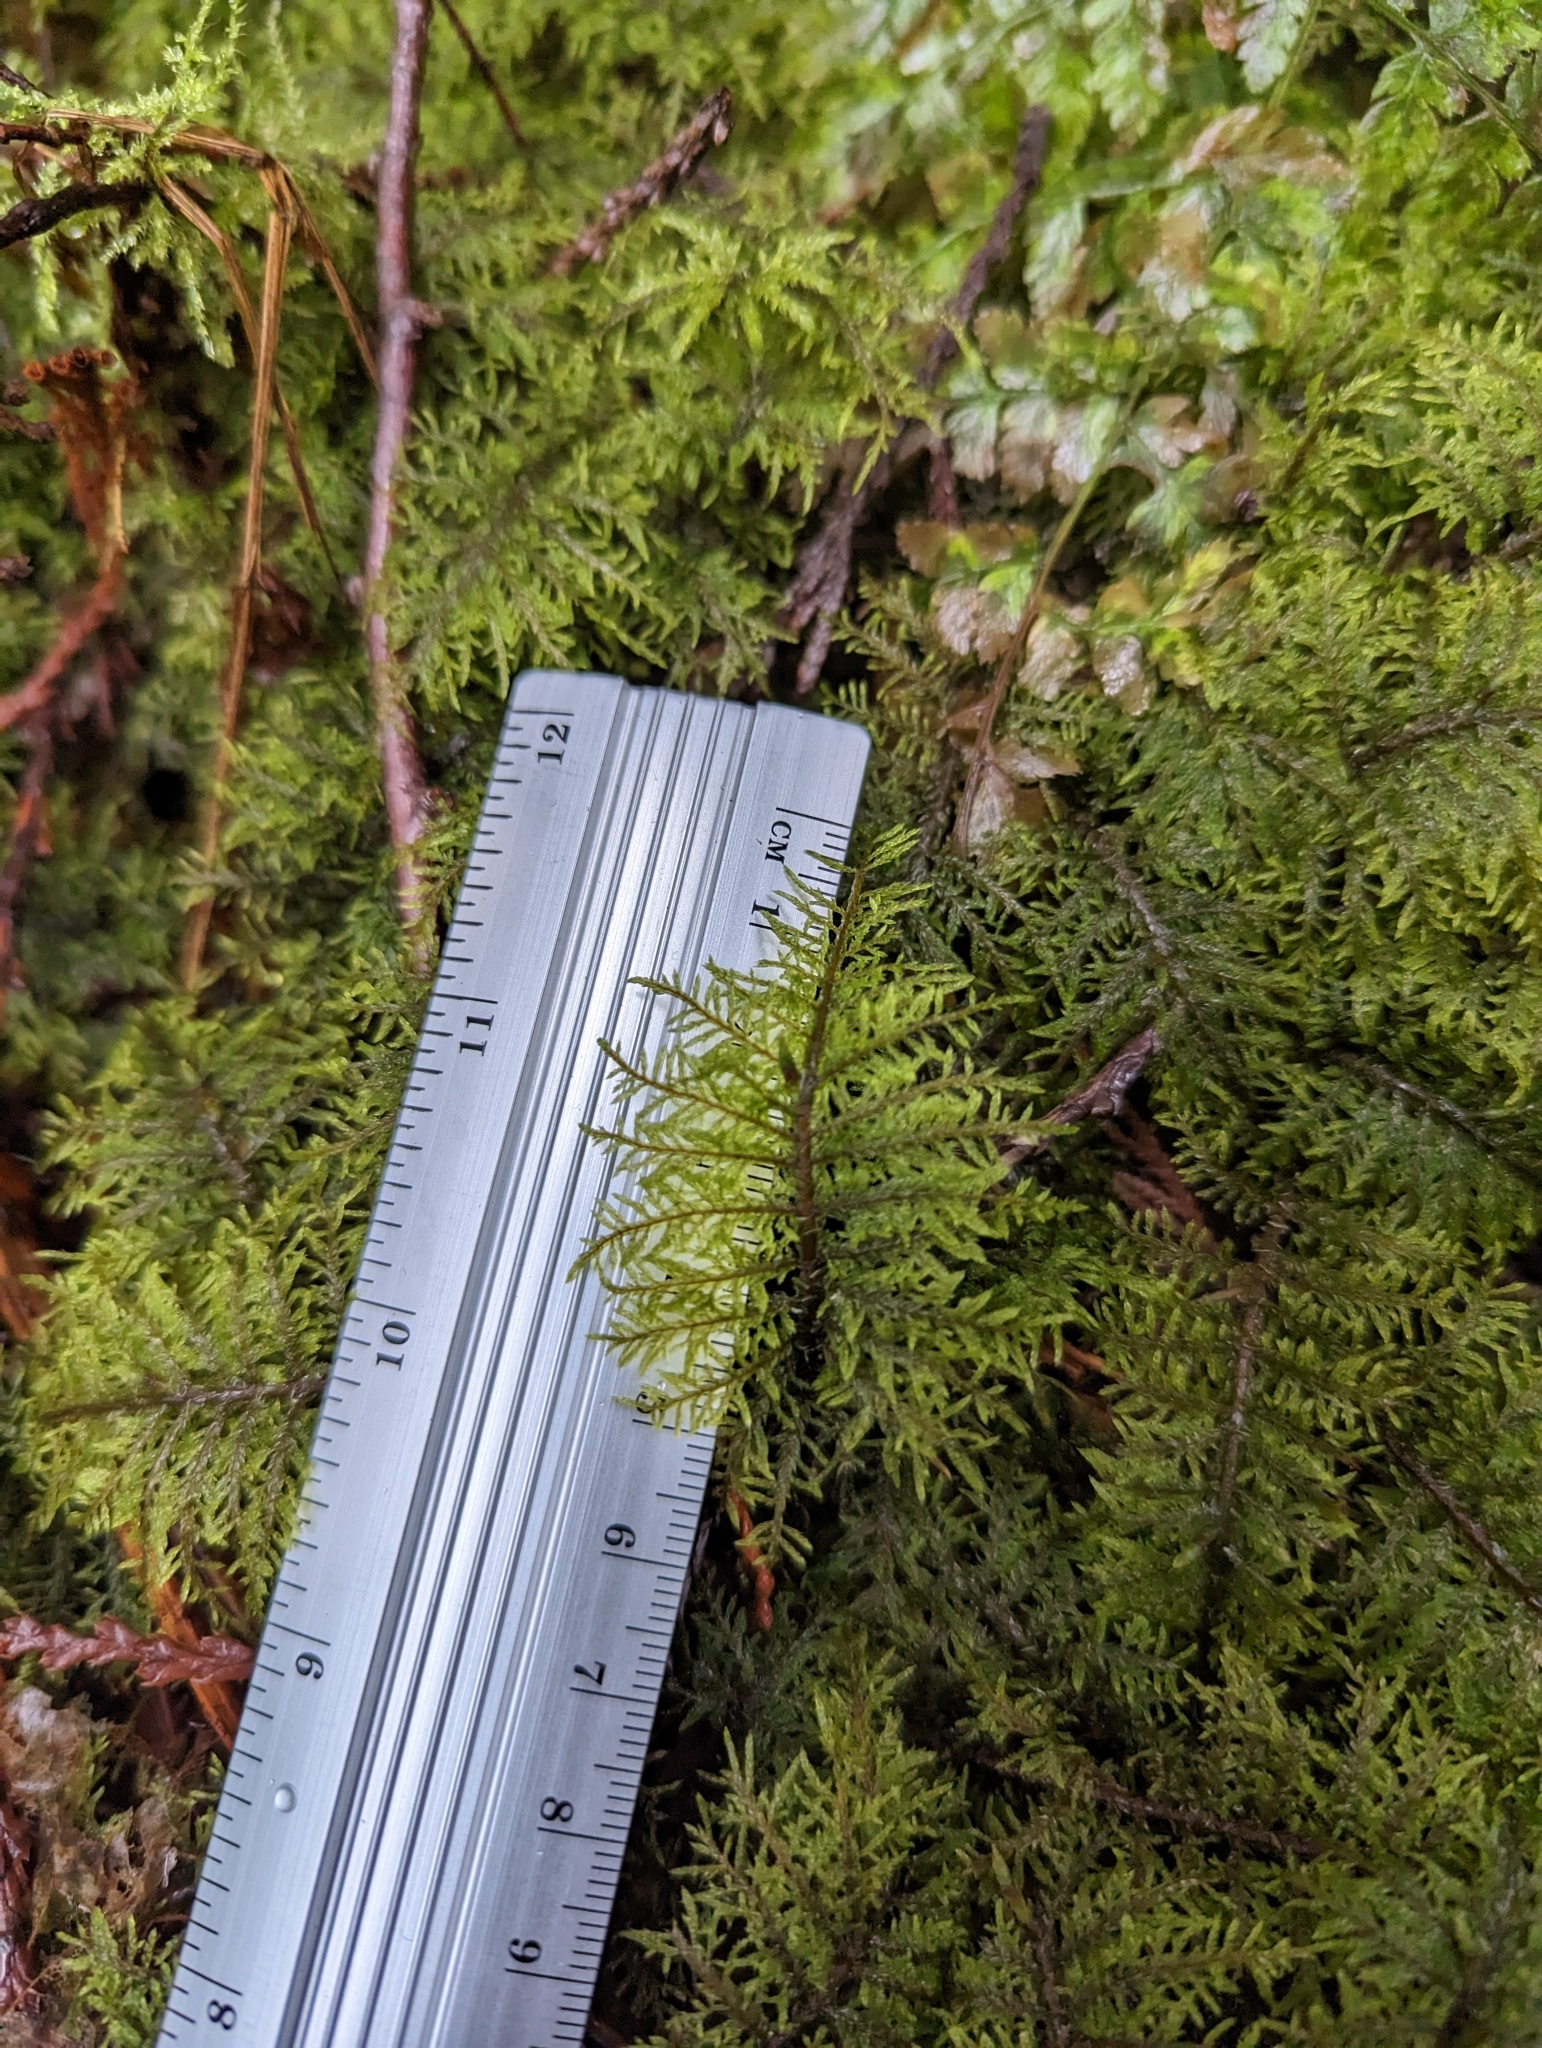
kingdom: Plantae
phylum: Bryophyta
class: Bryopsida
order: Hypnales
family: Hylocomiaceae
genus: Hylocomium
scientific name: Hylocomium splendens
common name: Stairstep moss
